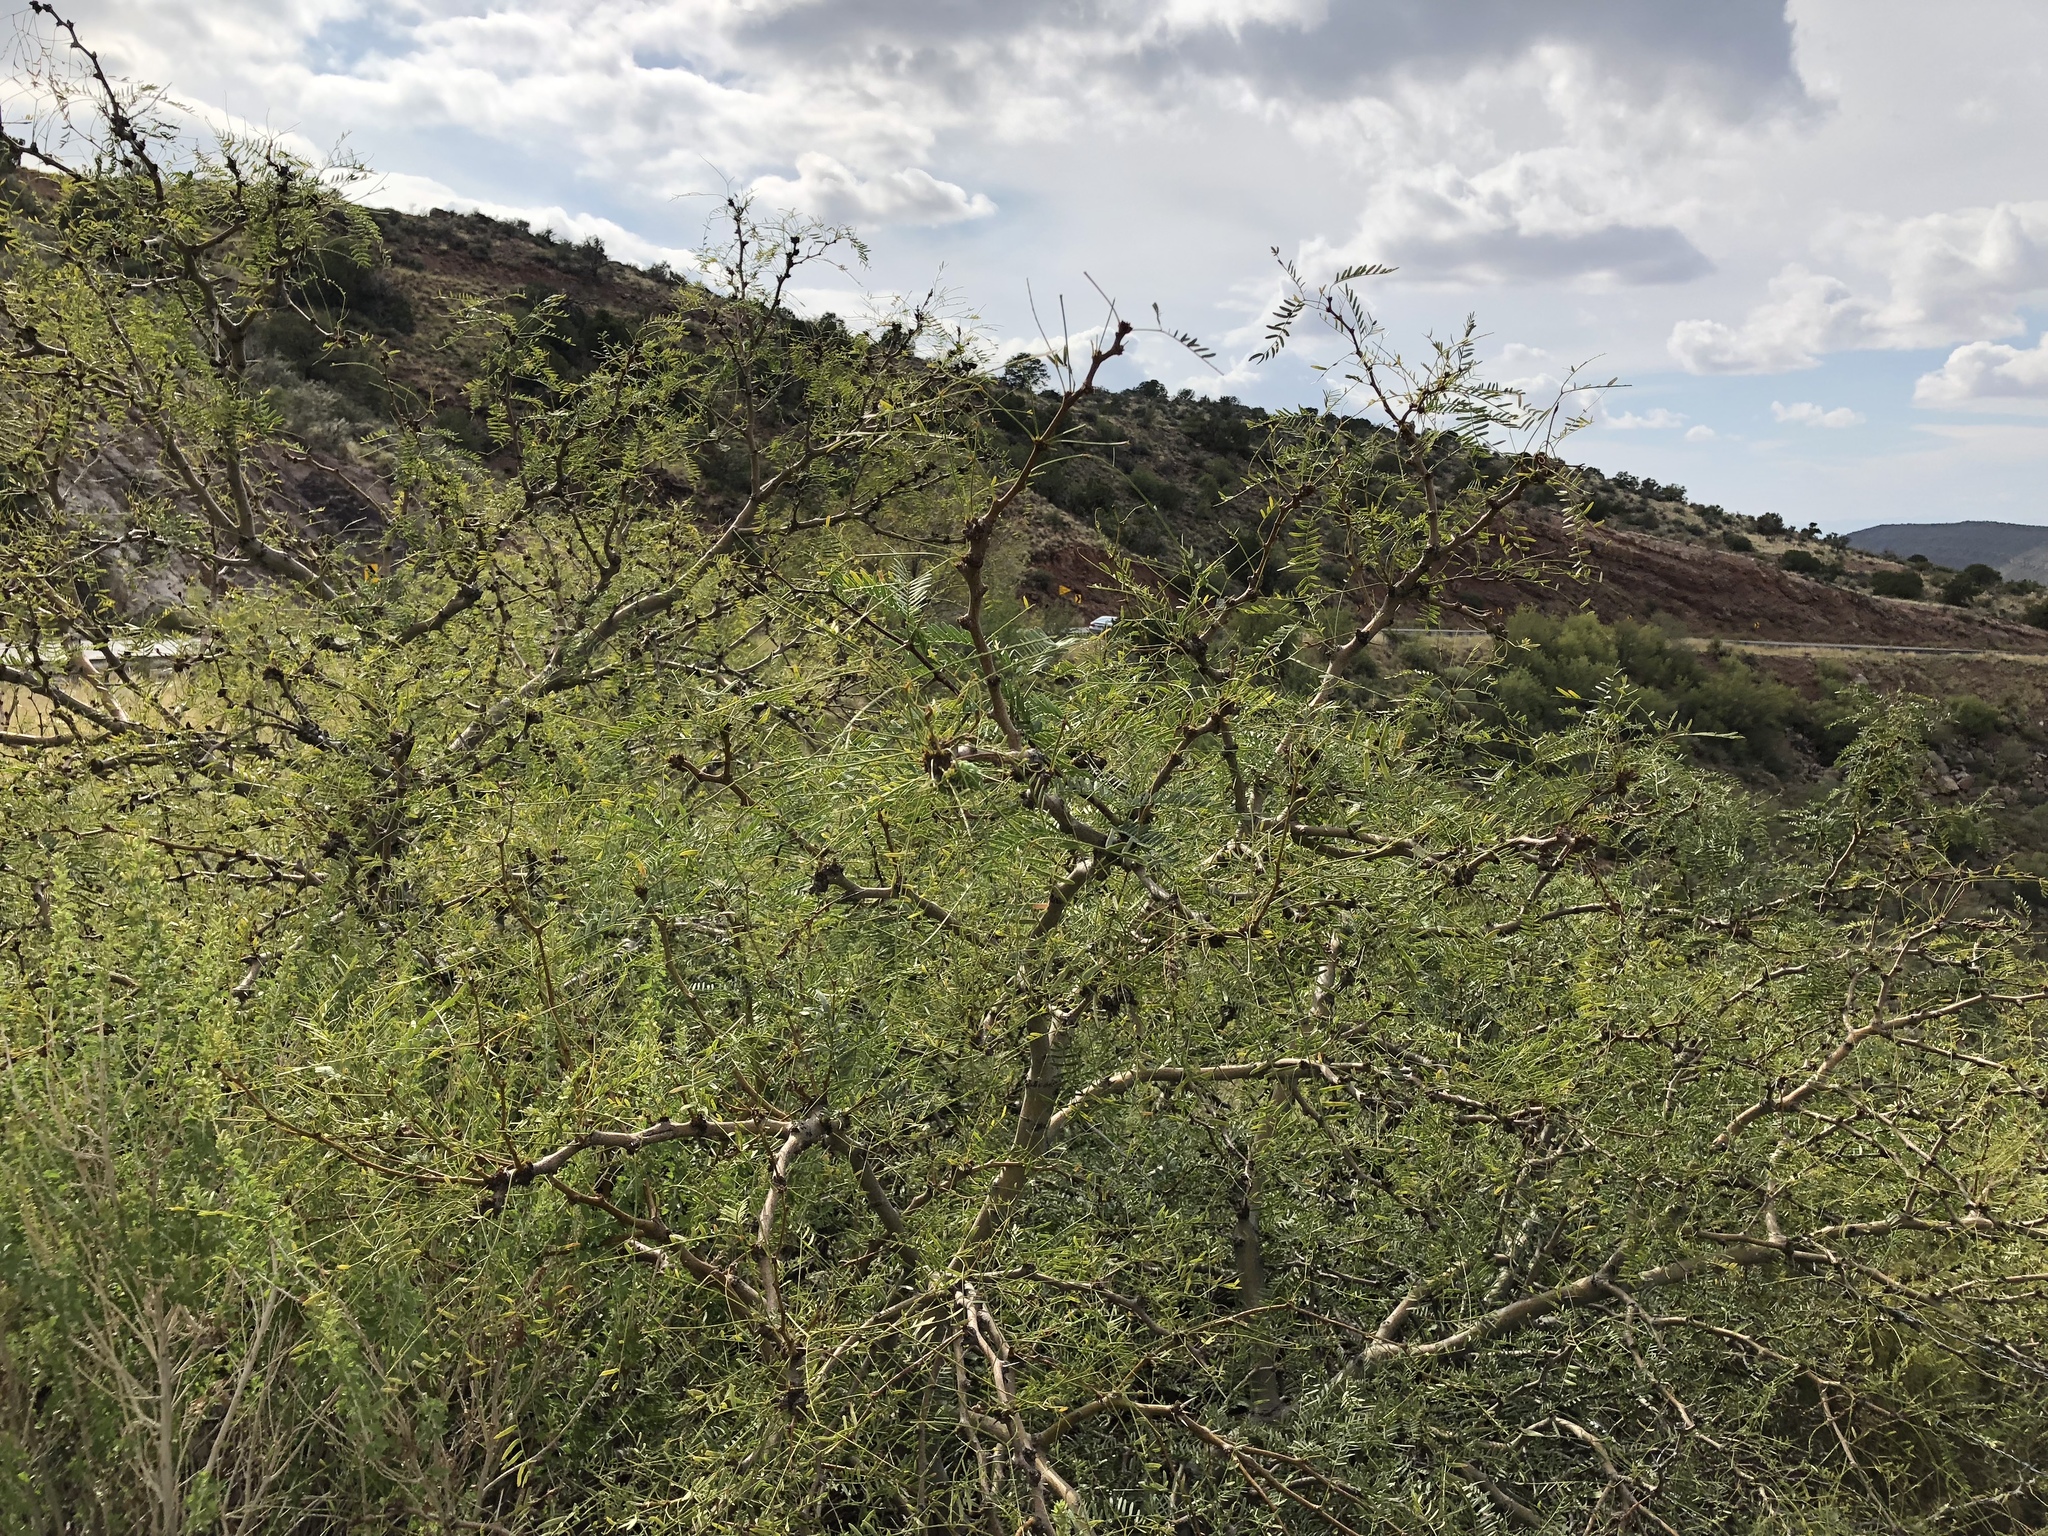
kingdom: Plantae
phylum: Tracheophyta
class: Magnoliopsida
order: Fabales
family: Fabaceae
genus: Prosopis
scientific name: Prosopis glandulosa
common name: Honey mesquite
